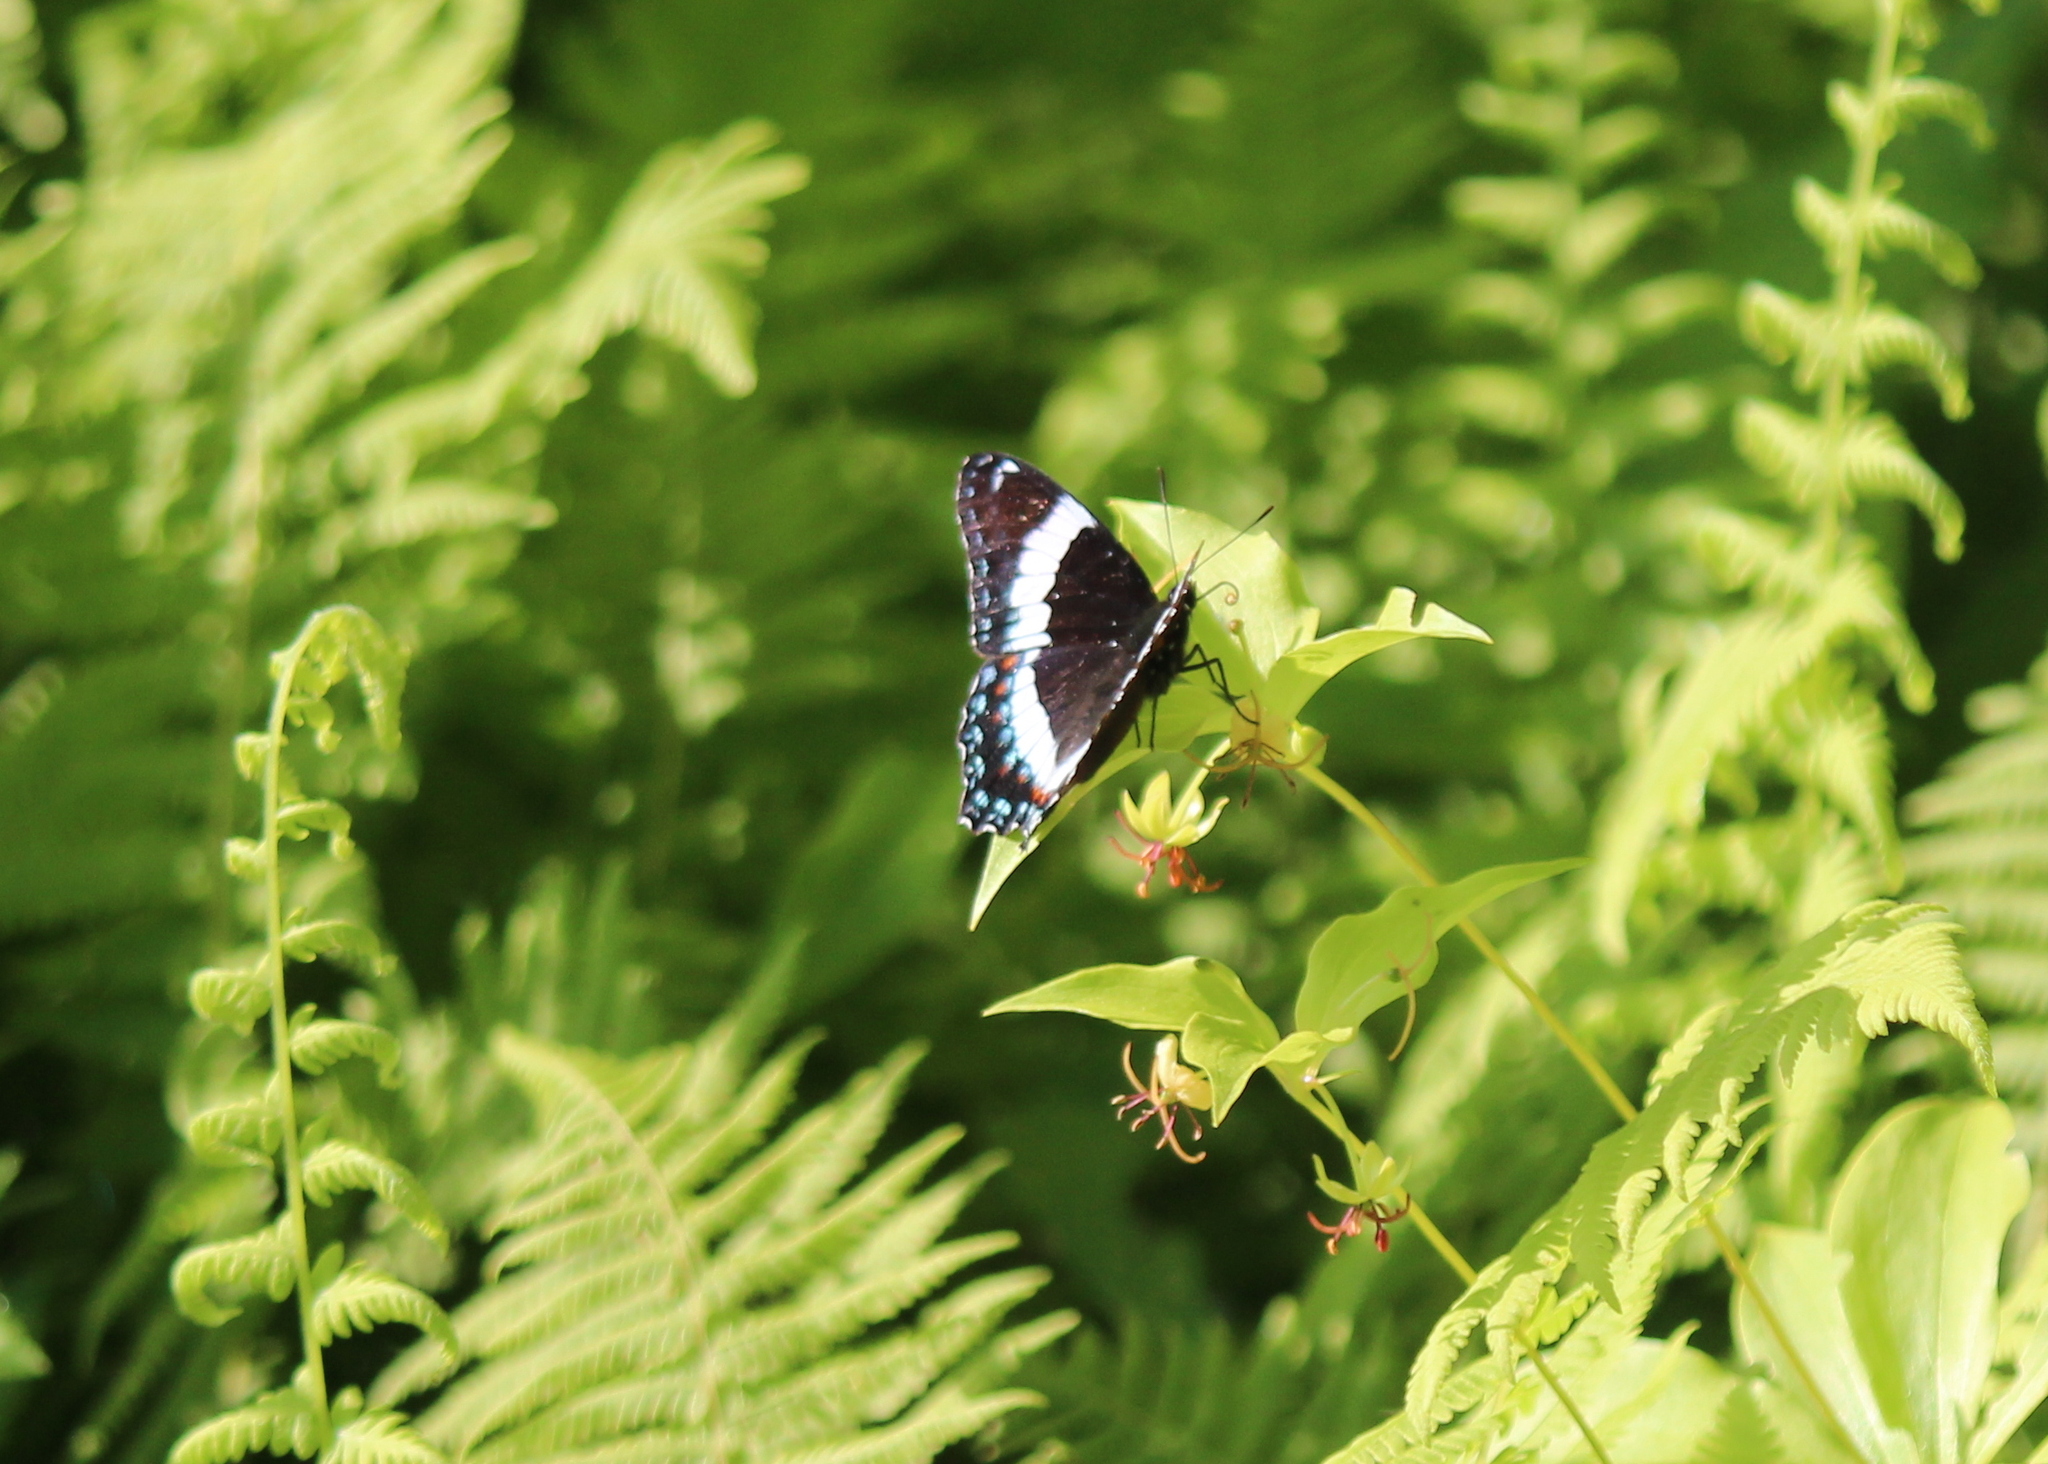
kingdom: Animalia
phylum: Arthropoda
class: Insecta
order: Lepidoptera
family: Nymphalidae
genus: Limenitis
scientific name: Limenitis arthemis
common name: Red-spotted admiral
